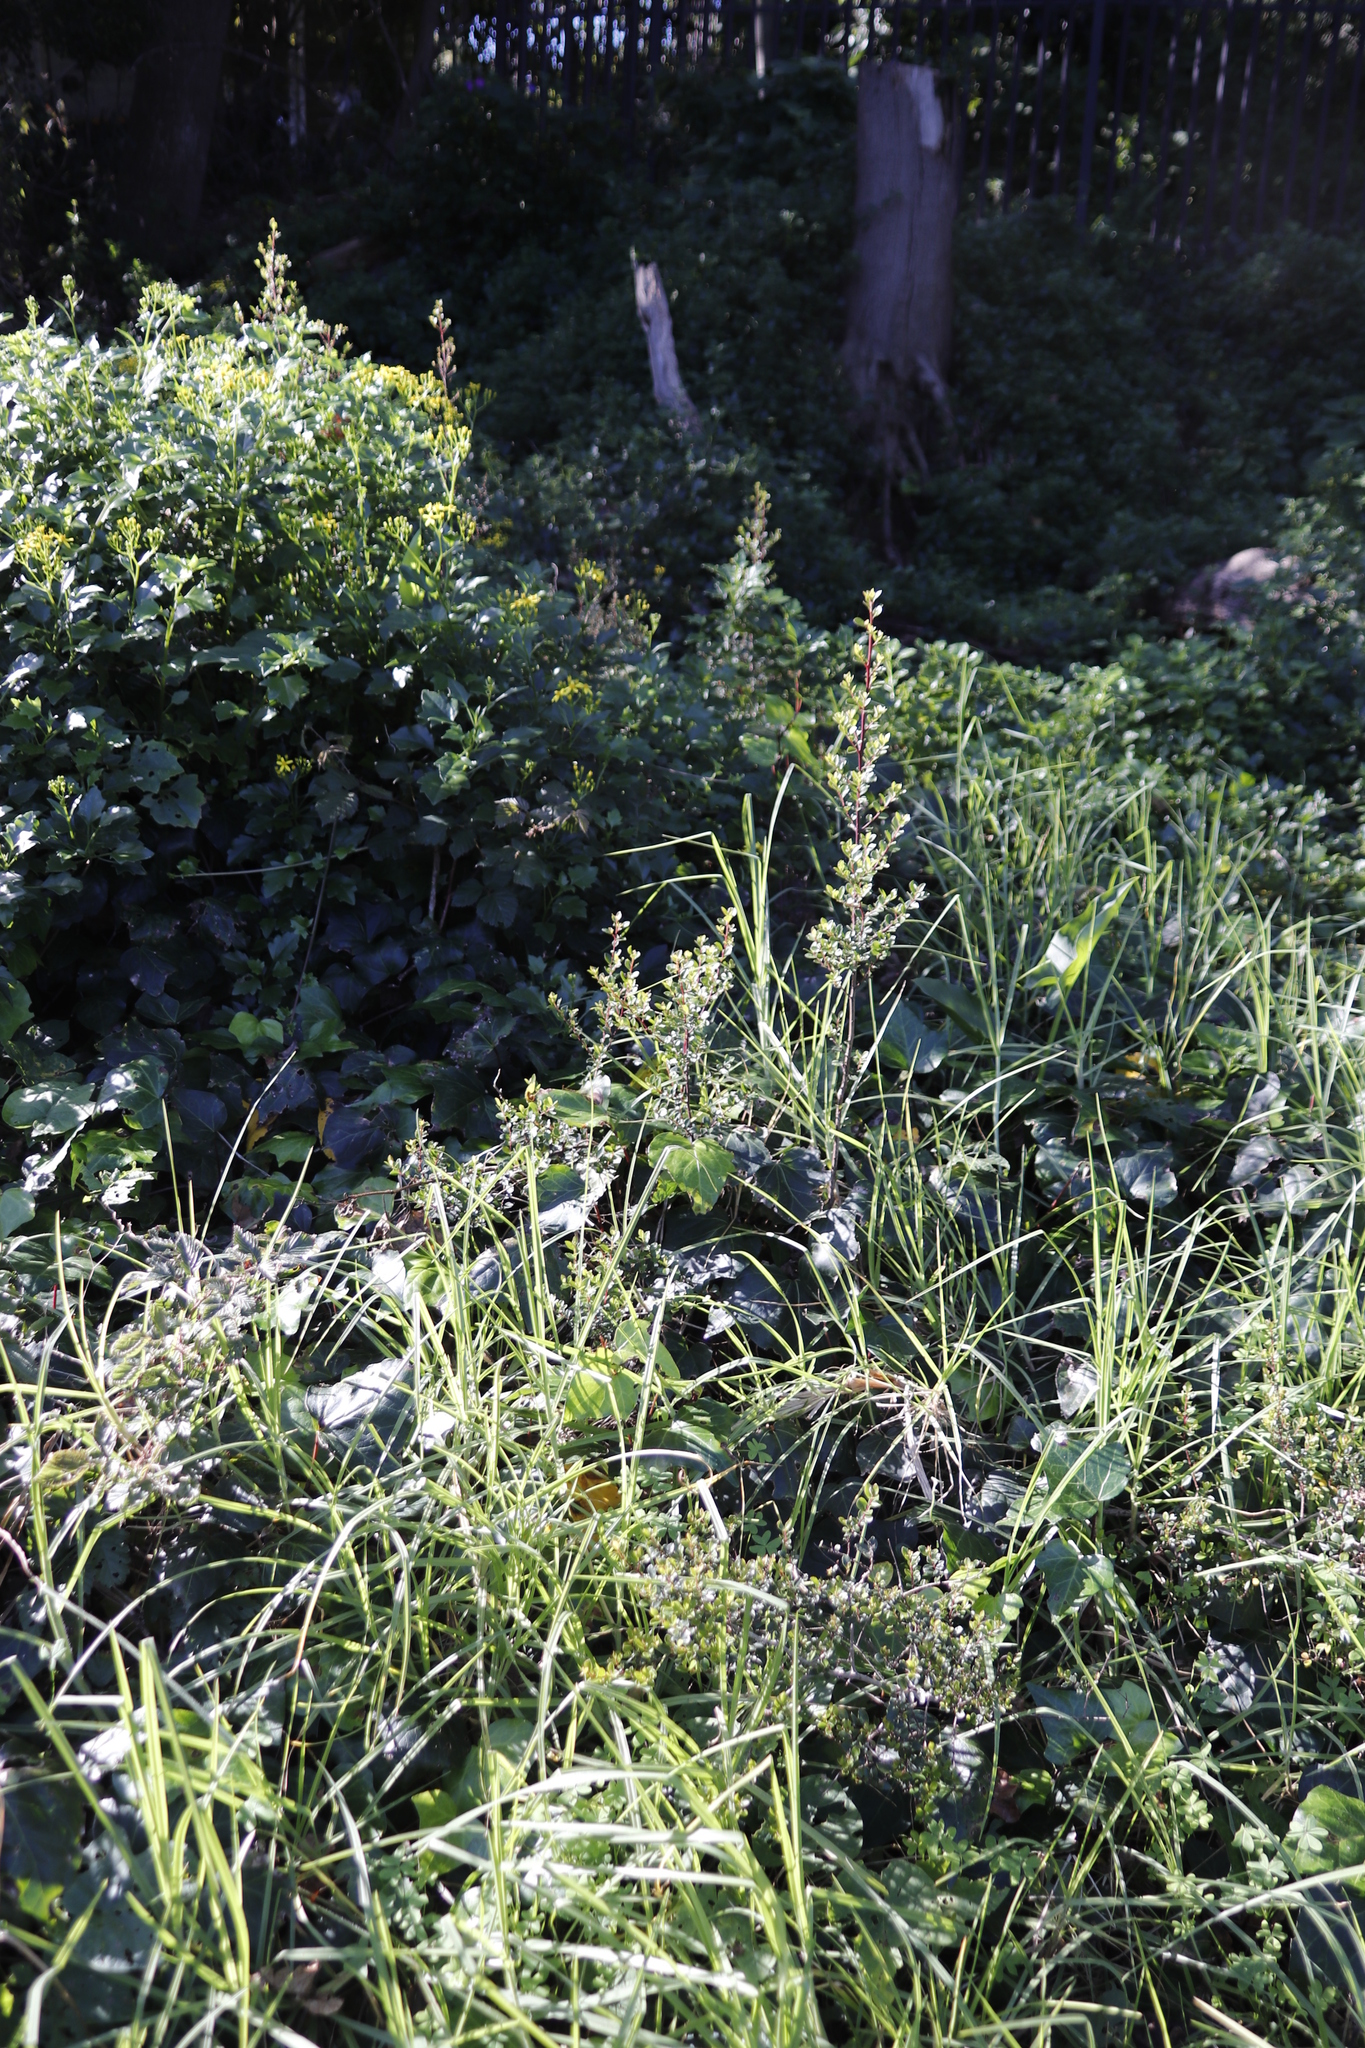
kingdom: Plantae
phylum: Tracheophyta
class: Magnoliopsida
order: Ericales
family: Primulaceae
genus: Myrsine
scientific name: Myrsine africana
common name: African-boxwood
